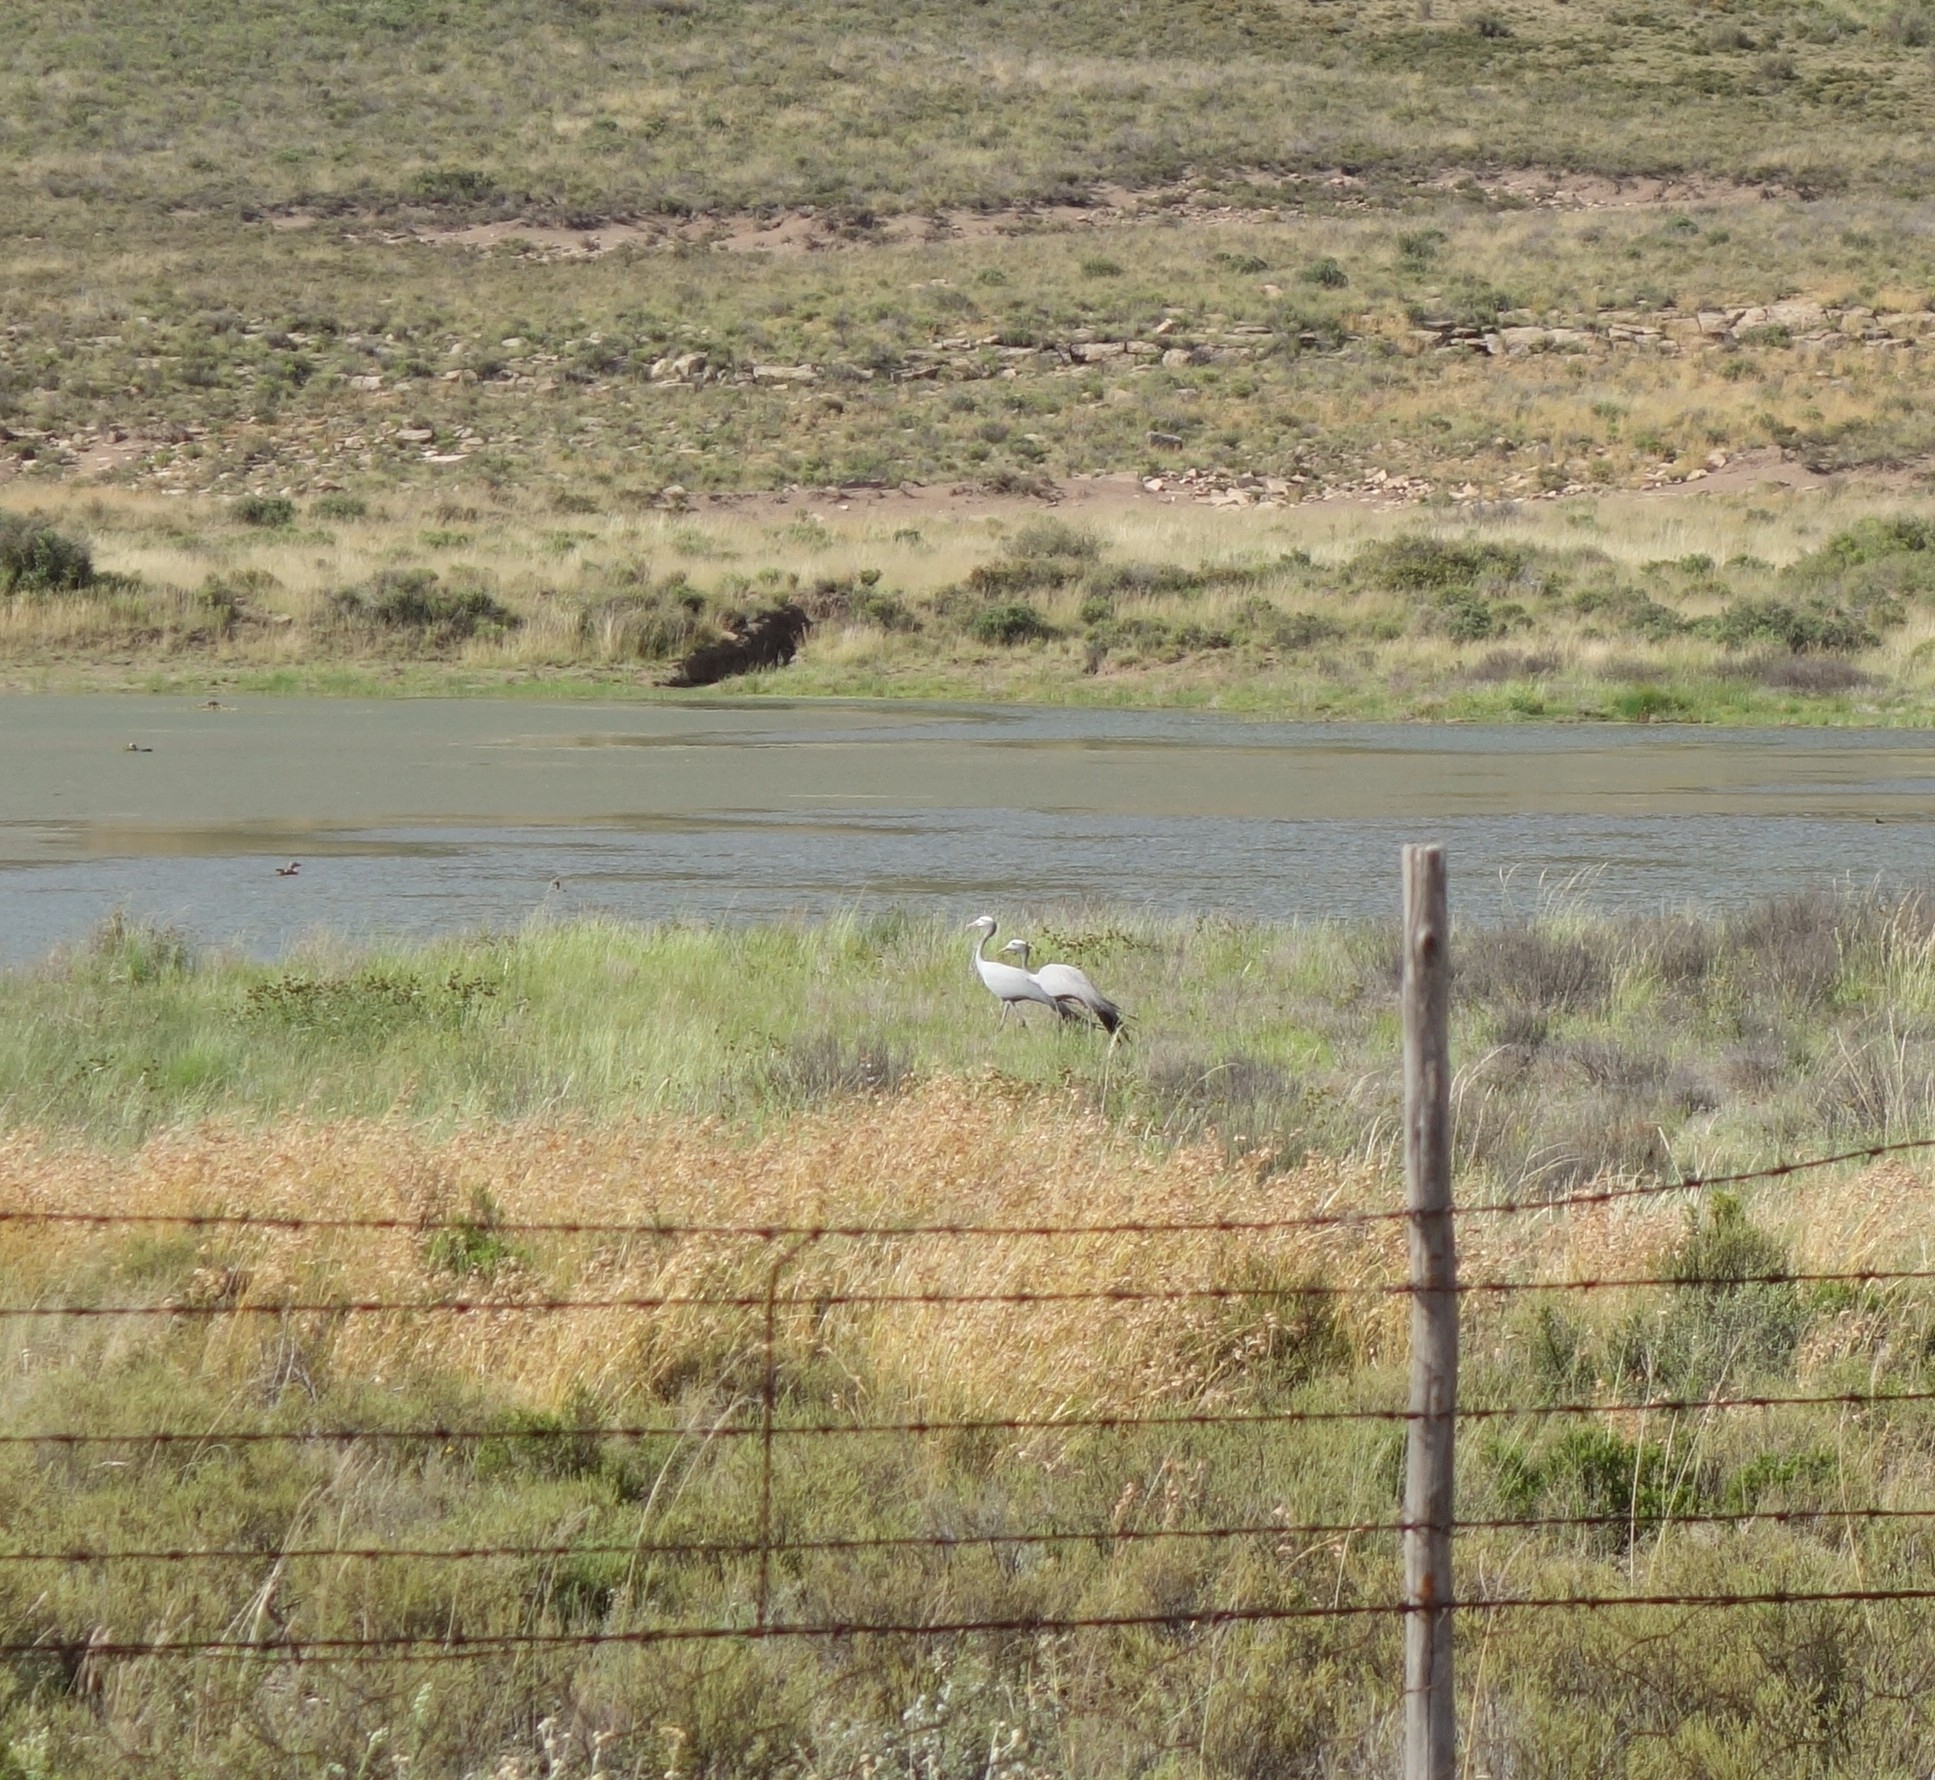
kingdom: Animalia
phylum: Chordata
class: Aves
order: Gruiformes
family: Gruidae
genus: Anthropoides
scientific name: Anthropoides paradiseus
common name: Blue crane
